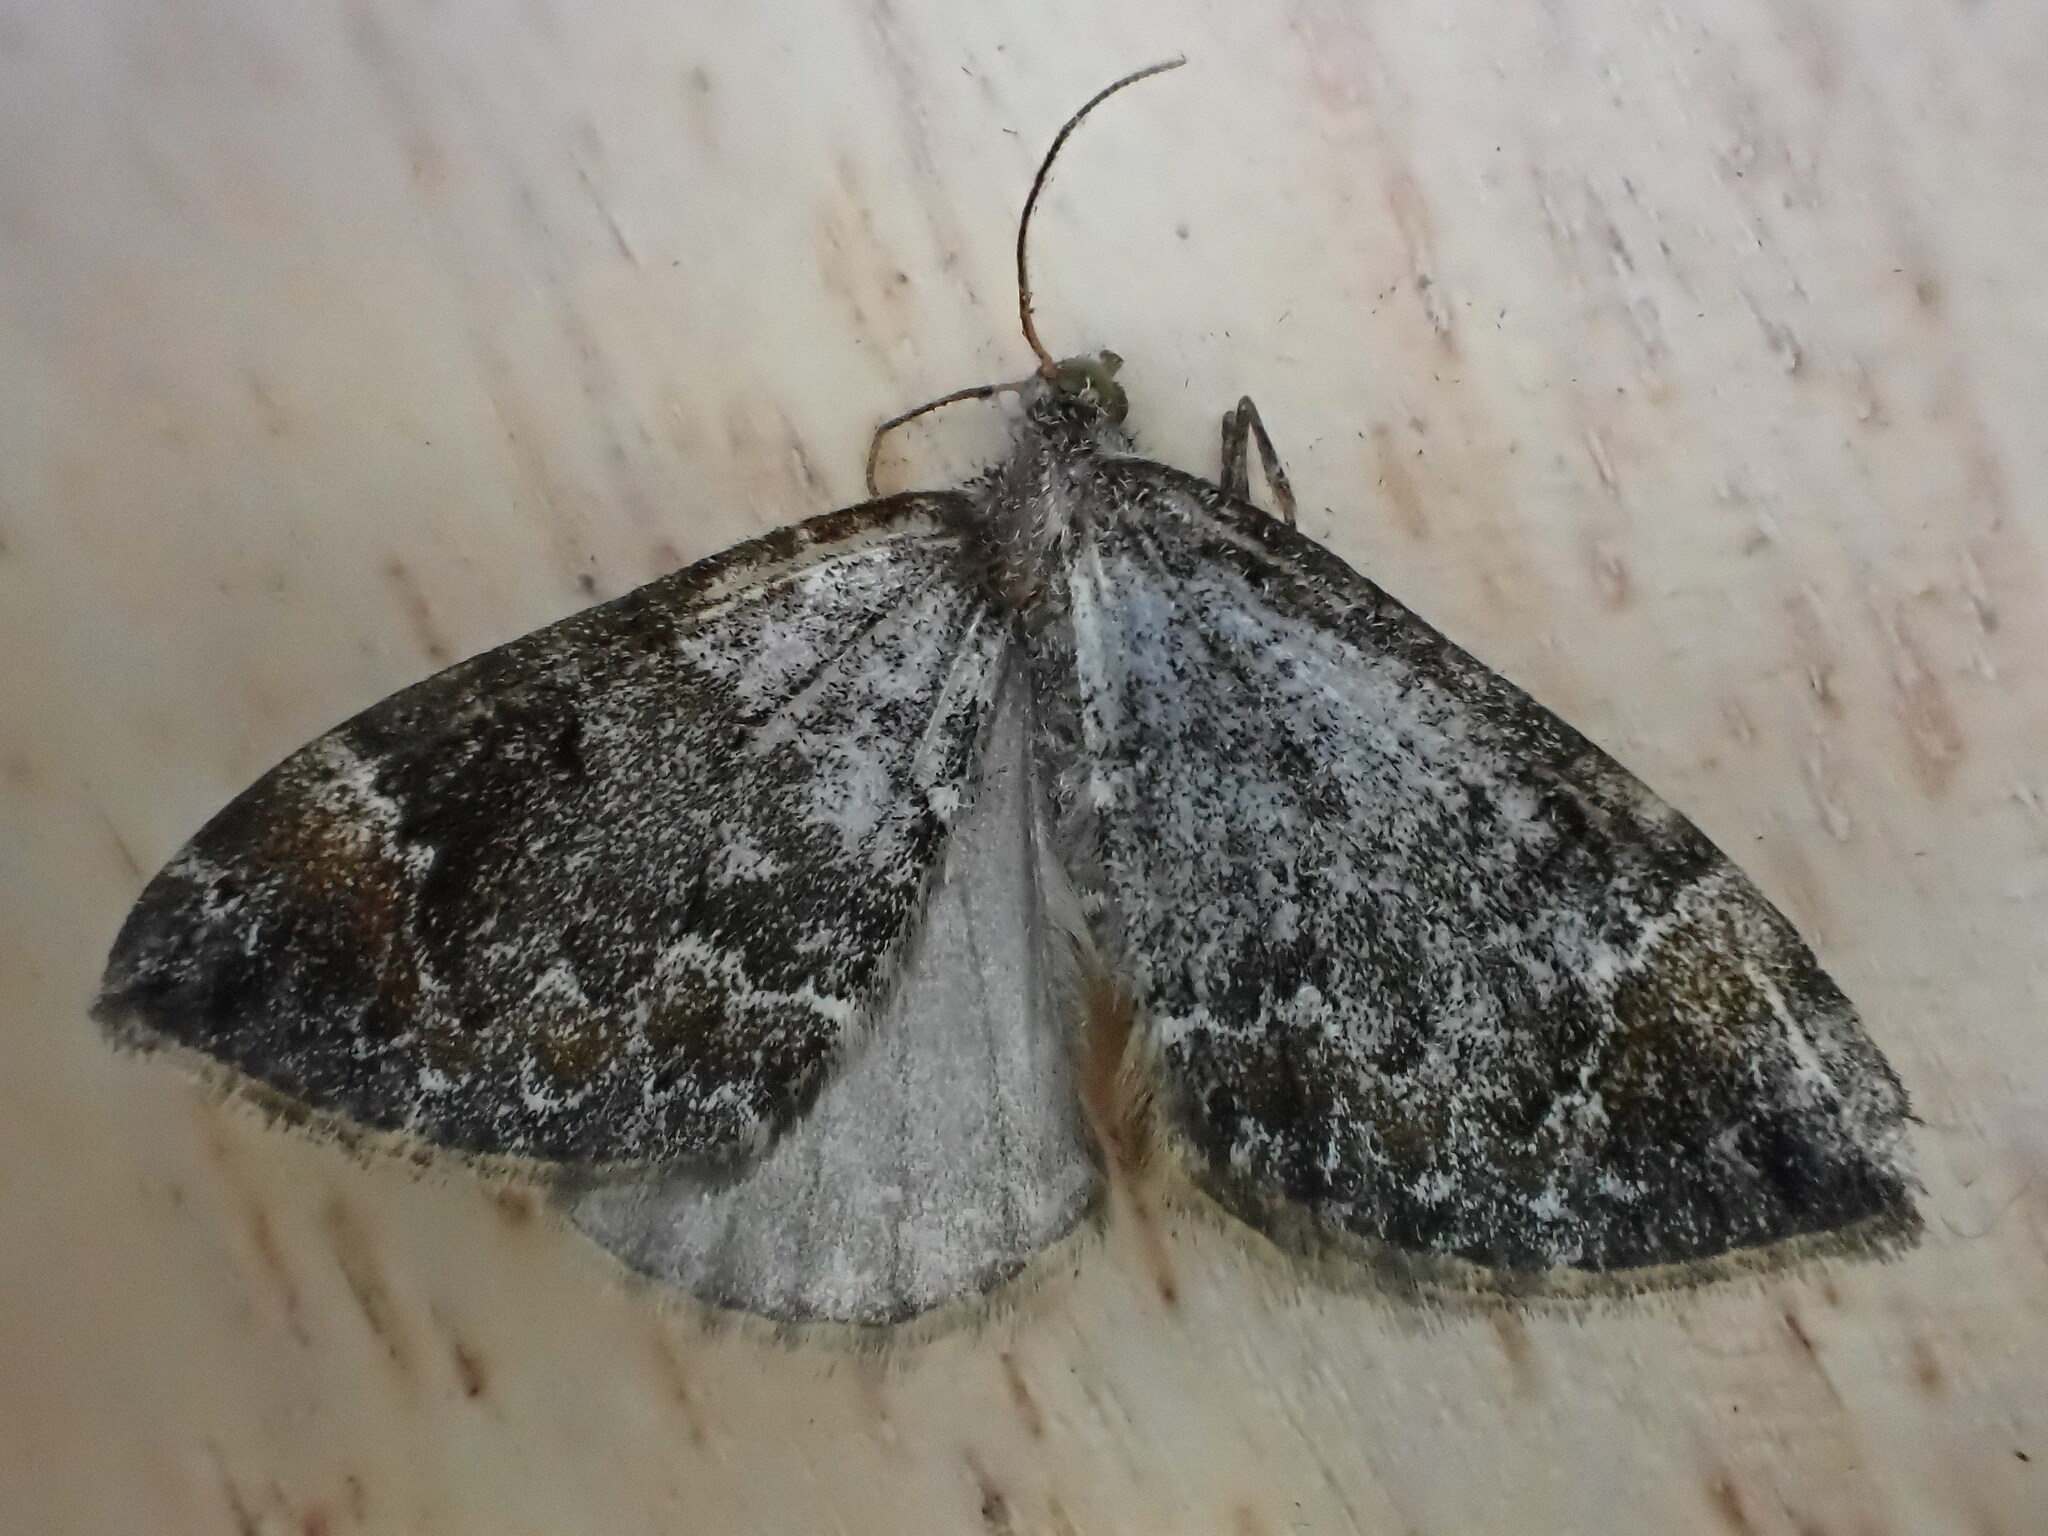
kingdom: Animalia
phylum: Arthropoda
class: Insecta
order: Lepidoptera
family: Geometridae
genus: Dysstroma
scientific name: Dysstroma truncata
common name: Common marbled carpet
